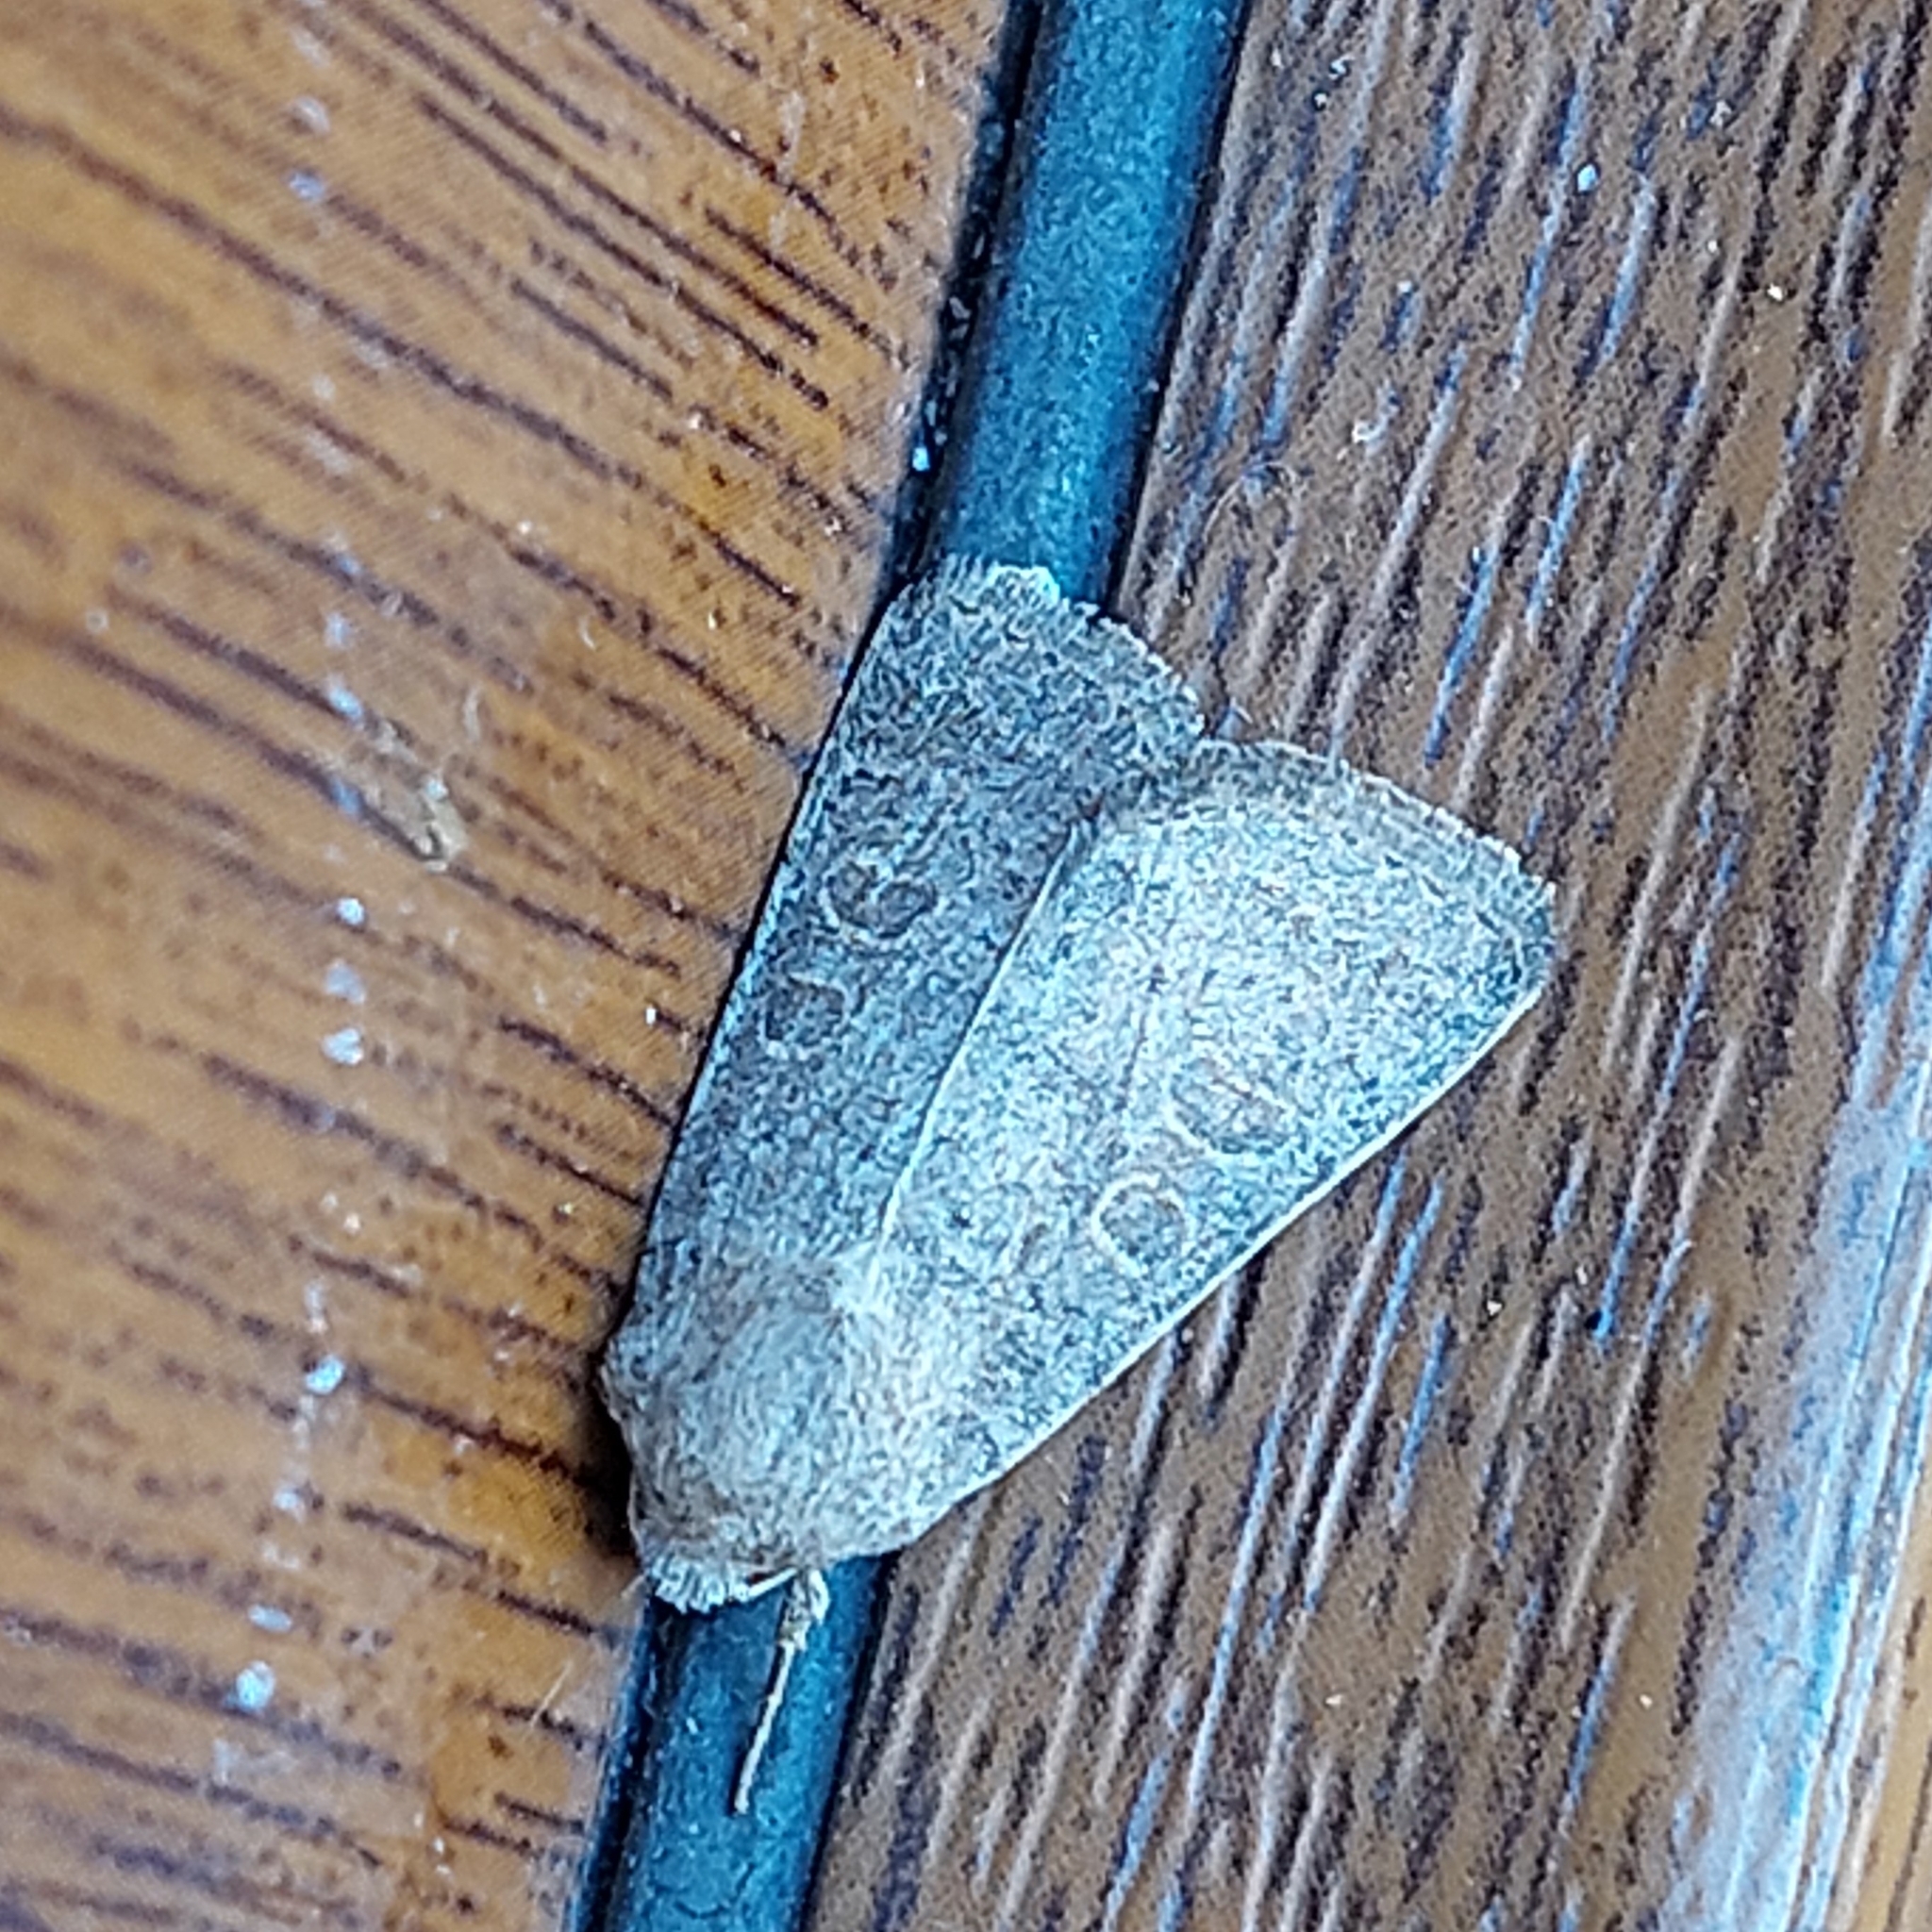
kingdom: Animalia
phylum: Arthropoda
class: Insecta
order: Lepidoptera
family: Noctuidae
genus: Hoplodrina
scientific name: Hoplodrina ambigua
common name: Vine's rustic
